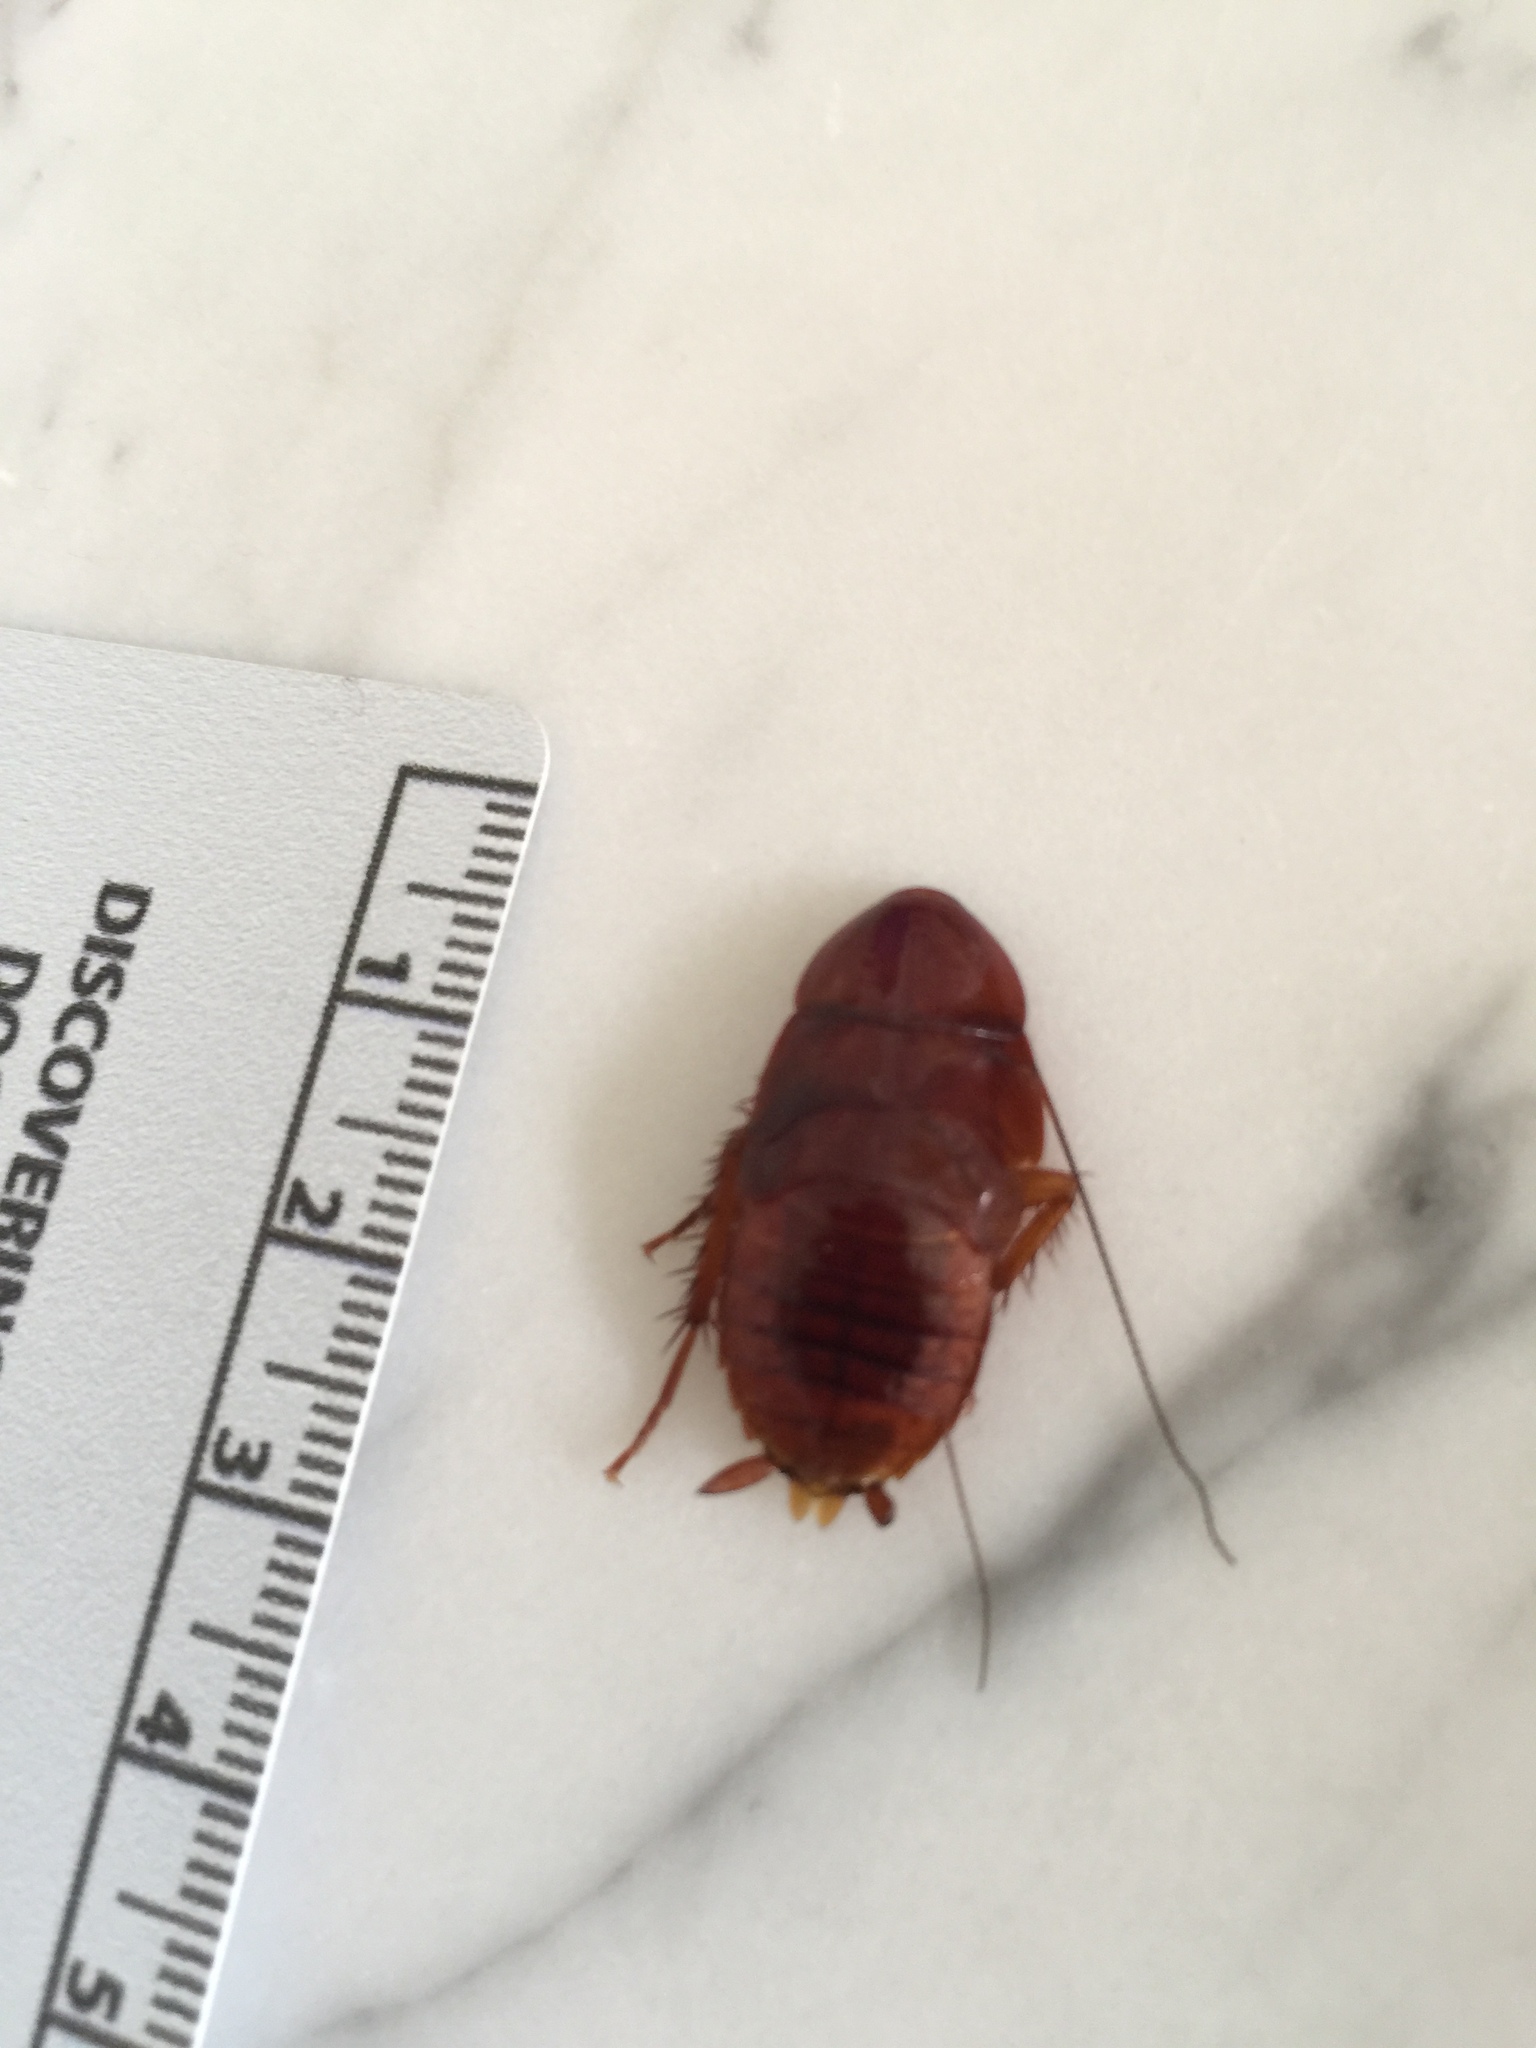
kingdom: Animalia
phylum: Arthropoda
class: Insecta
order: Blattodea
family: Blattidae
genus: Periplaneta
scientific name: Periplaneta americana
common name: American cockroach
